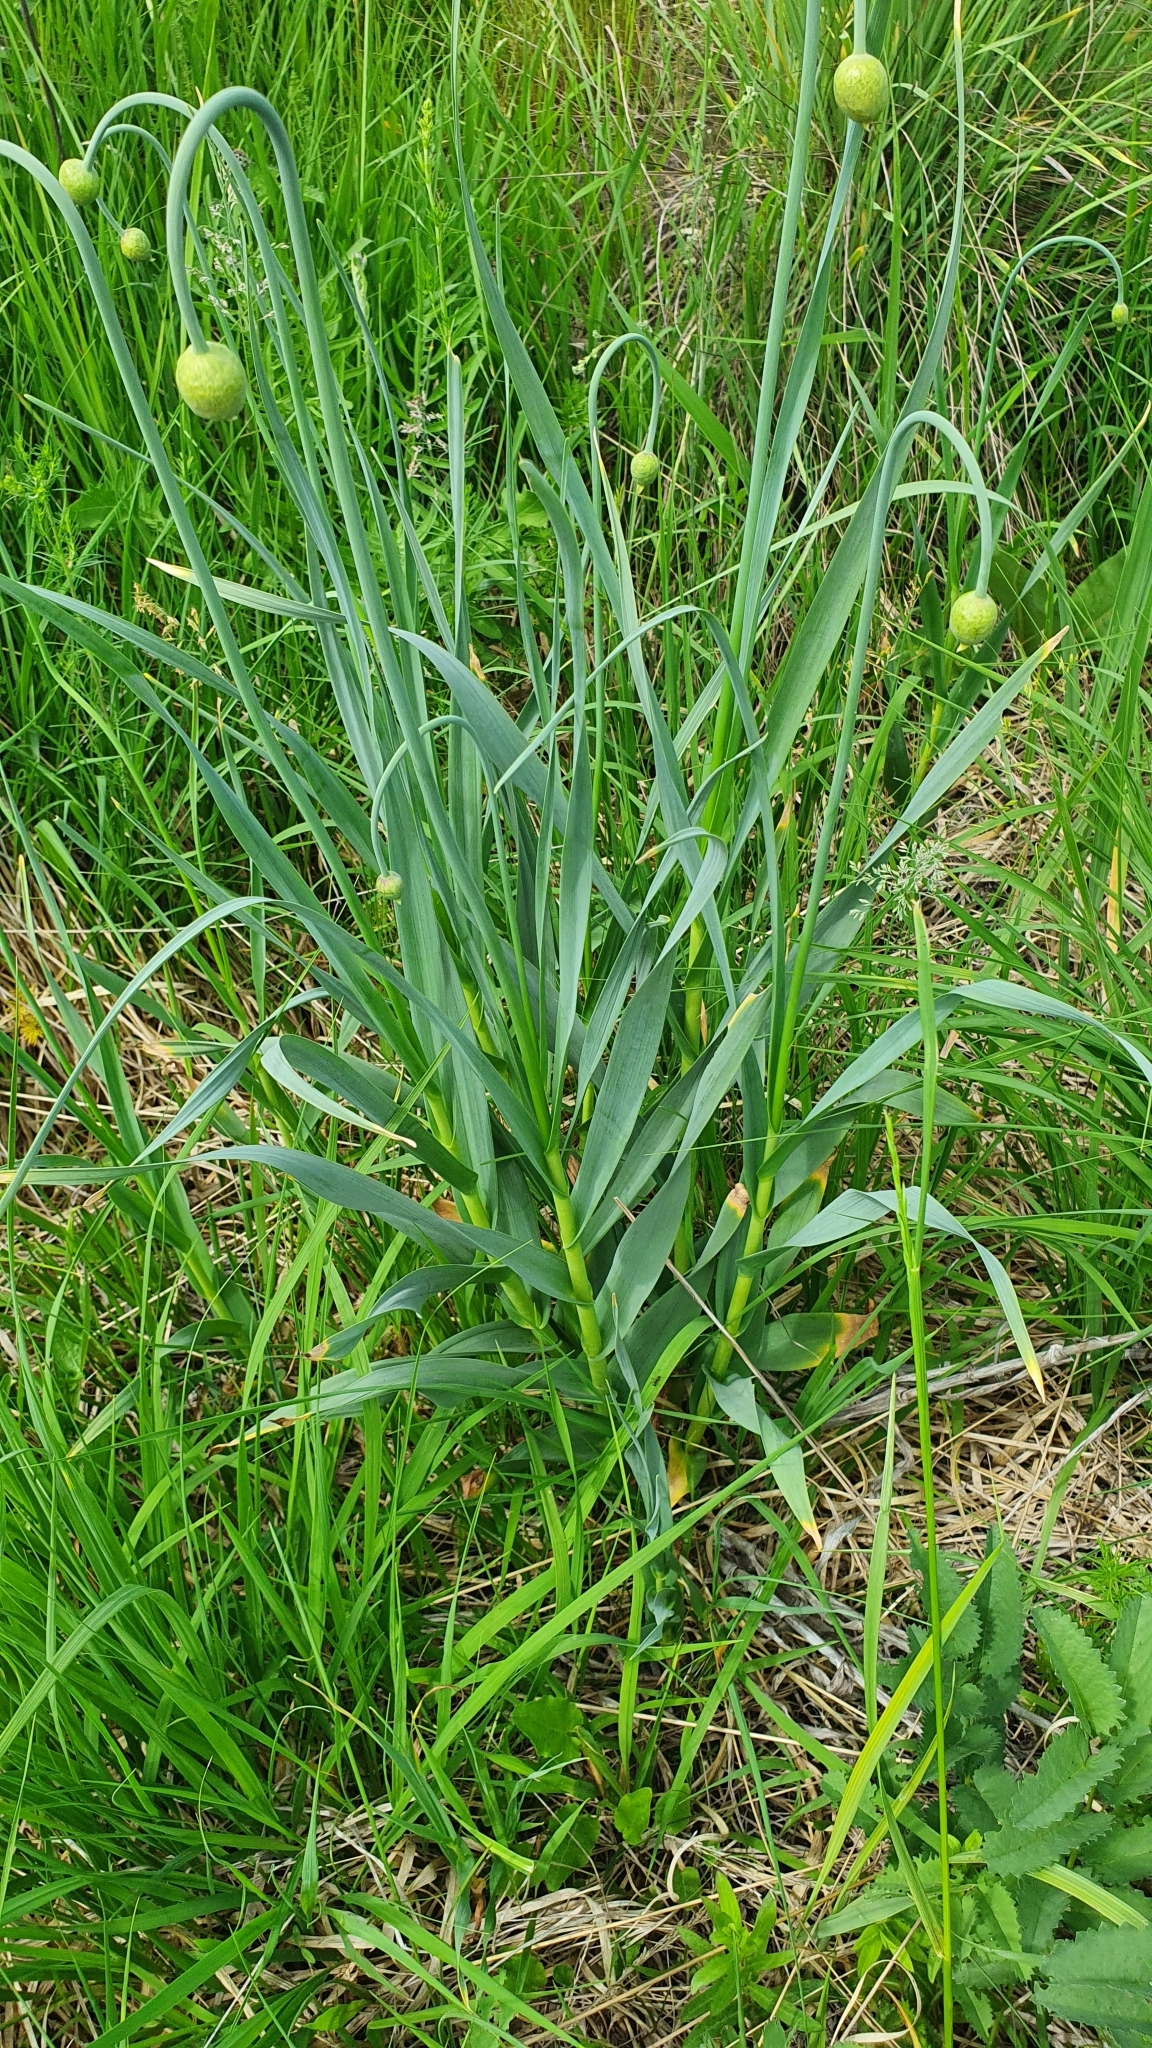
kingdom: Plantae
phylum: Tracheophyta
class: Liliopsida
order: Asparagales
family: Amaryllidaceae
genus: Allium
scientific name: Allium obliquum
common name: Oblique onion
